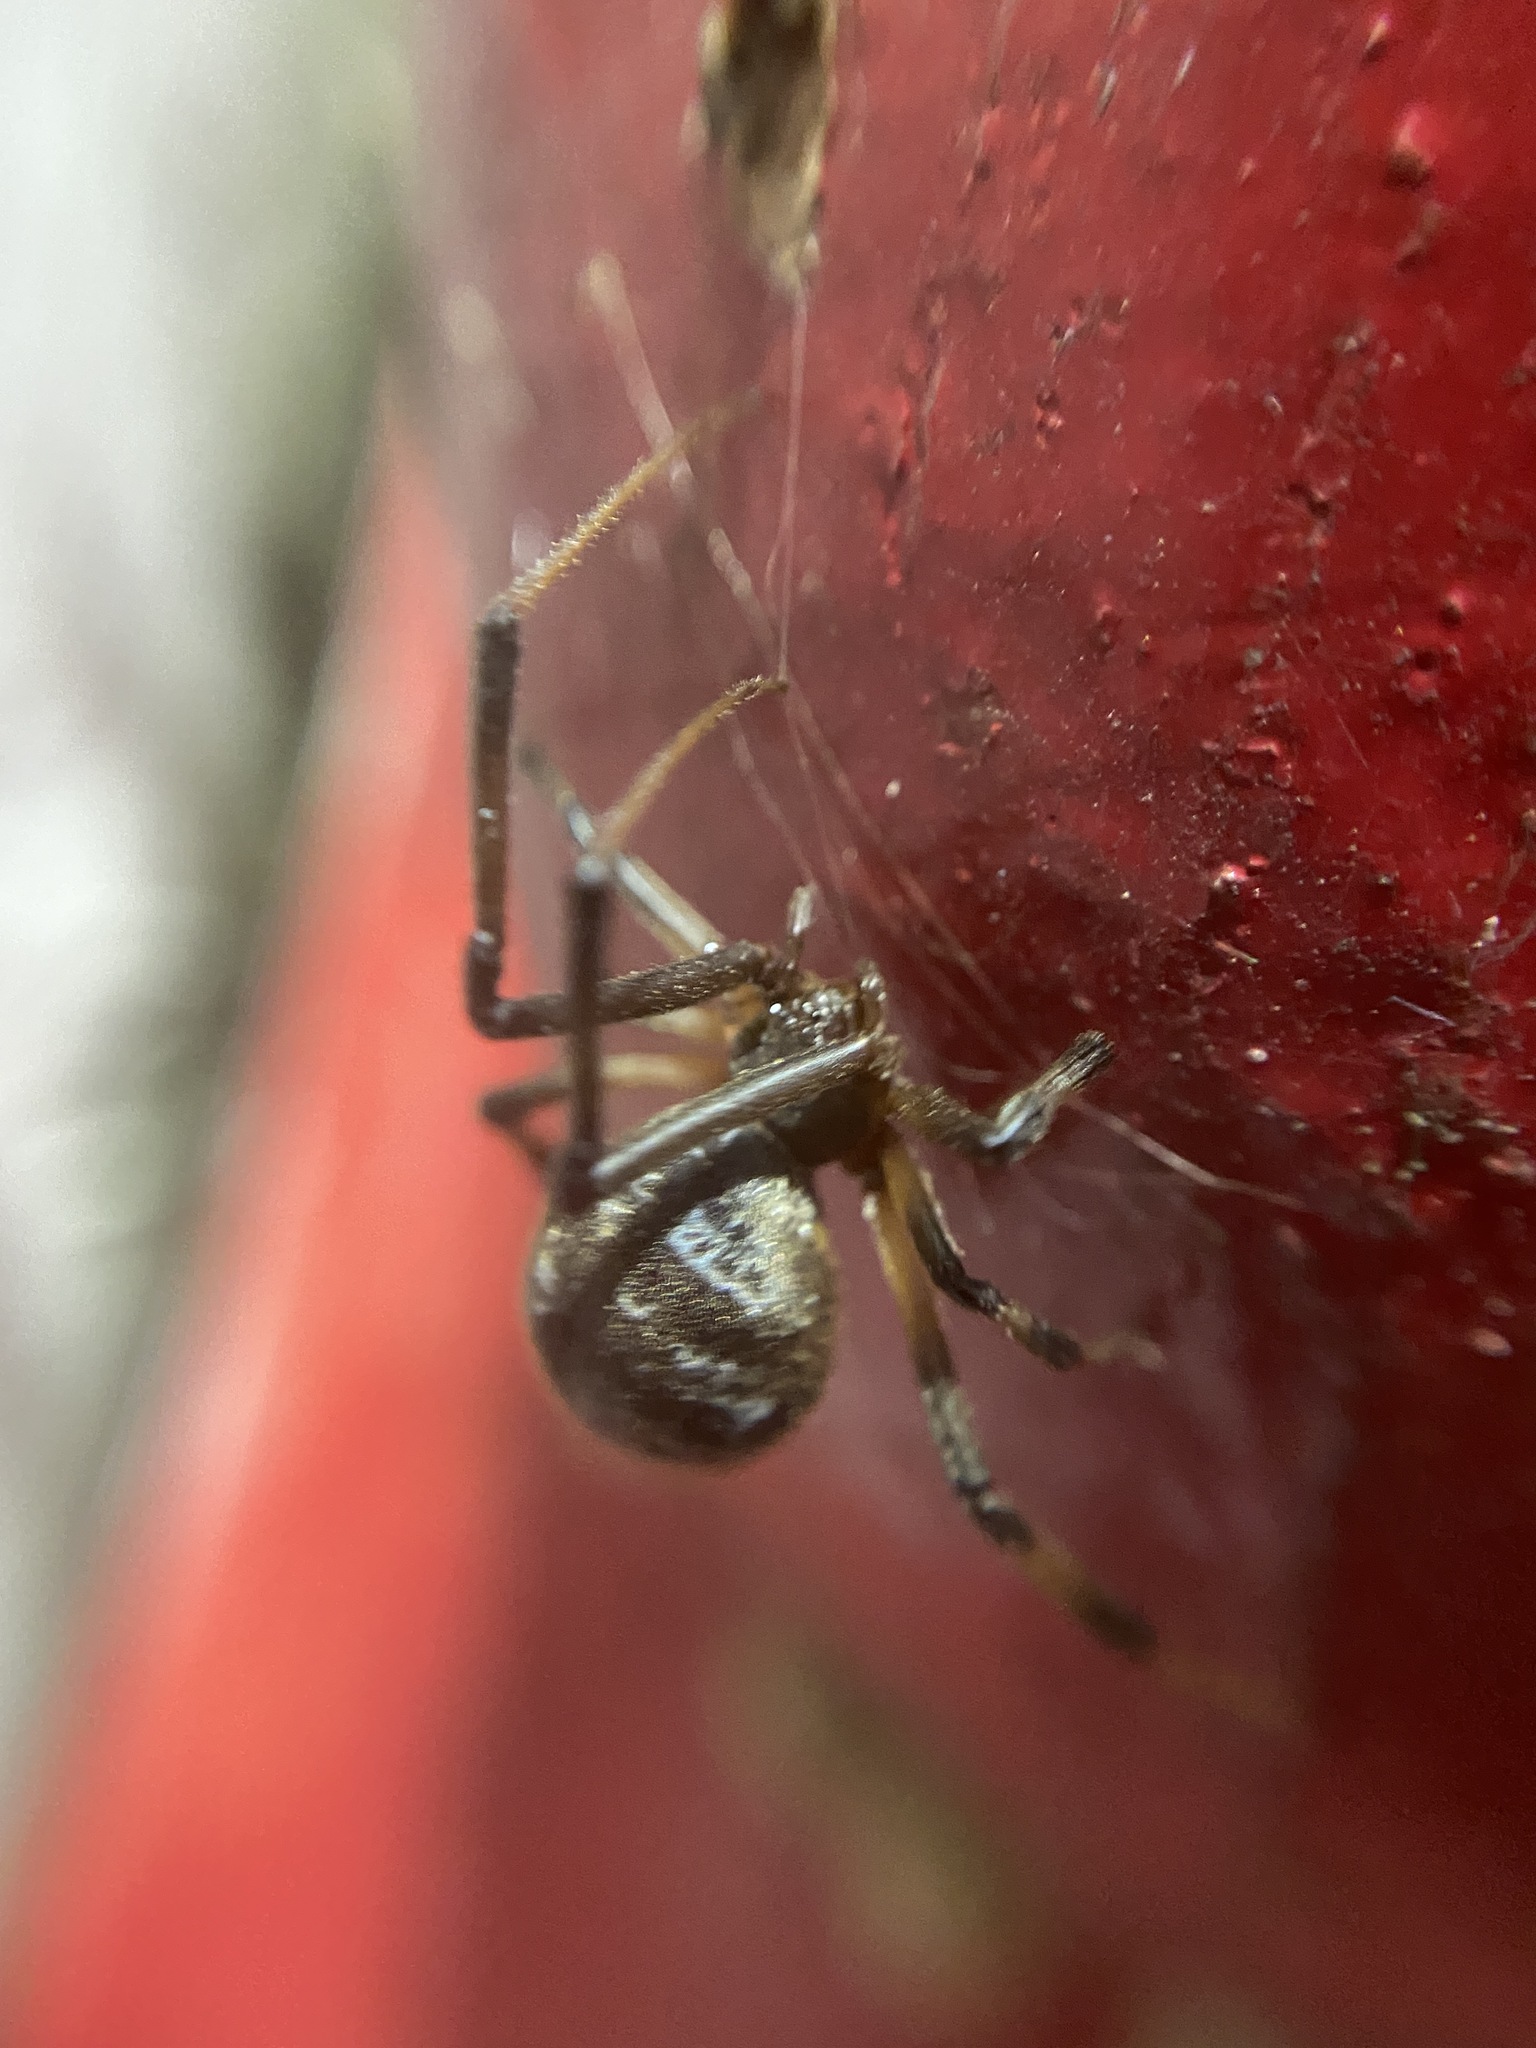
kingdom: Animalia
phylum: Arthropoda
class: Arachnida
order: Araneae
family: Theridiidae
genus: Latrodectus
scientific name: Latrodectus geometricus
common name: Brown widow spider
